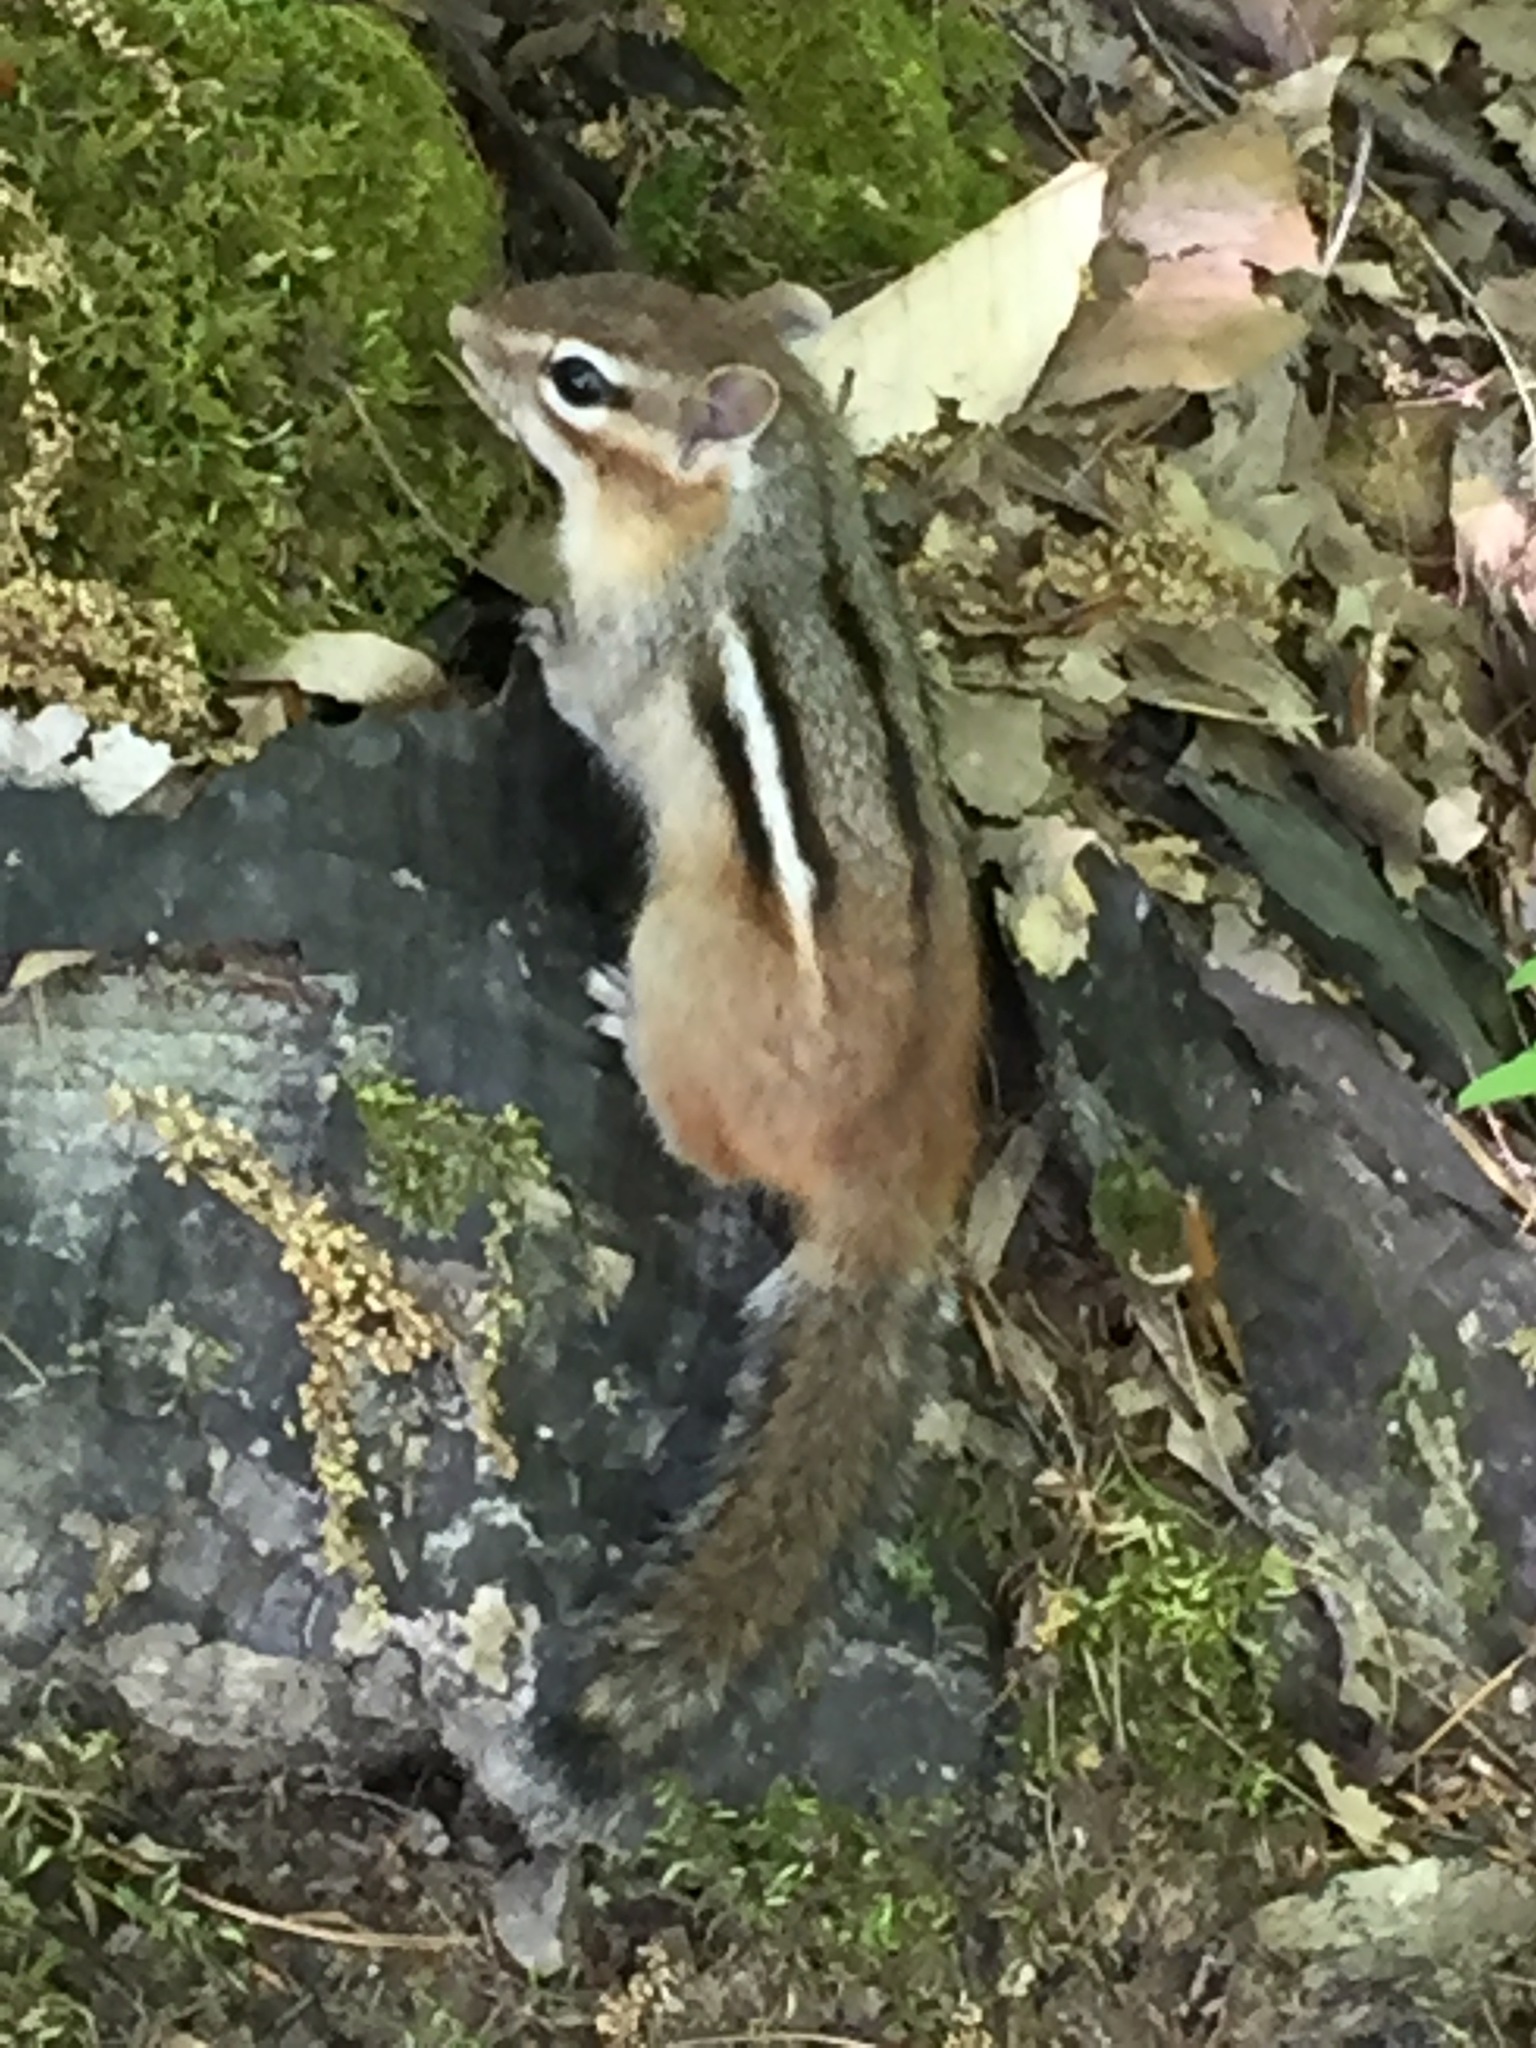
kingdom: Animalia
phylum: Chordata
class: Mammalia
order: Rodentia
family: Sciuridae
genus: Tamias
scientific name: Tamias striatus
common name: Eastern chipmunk
